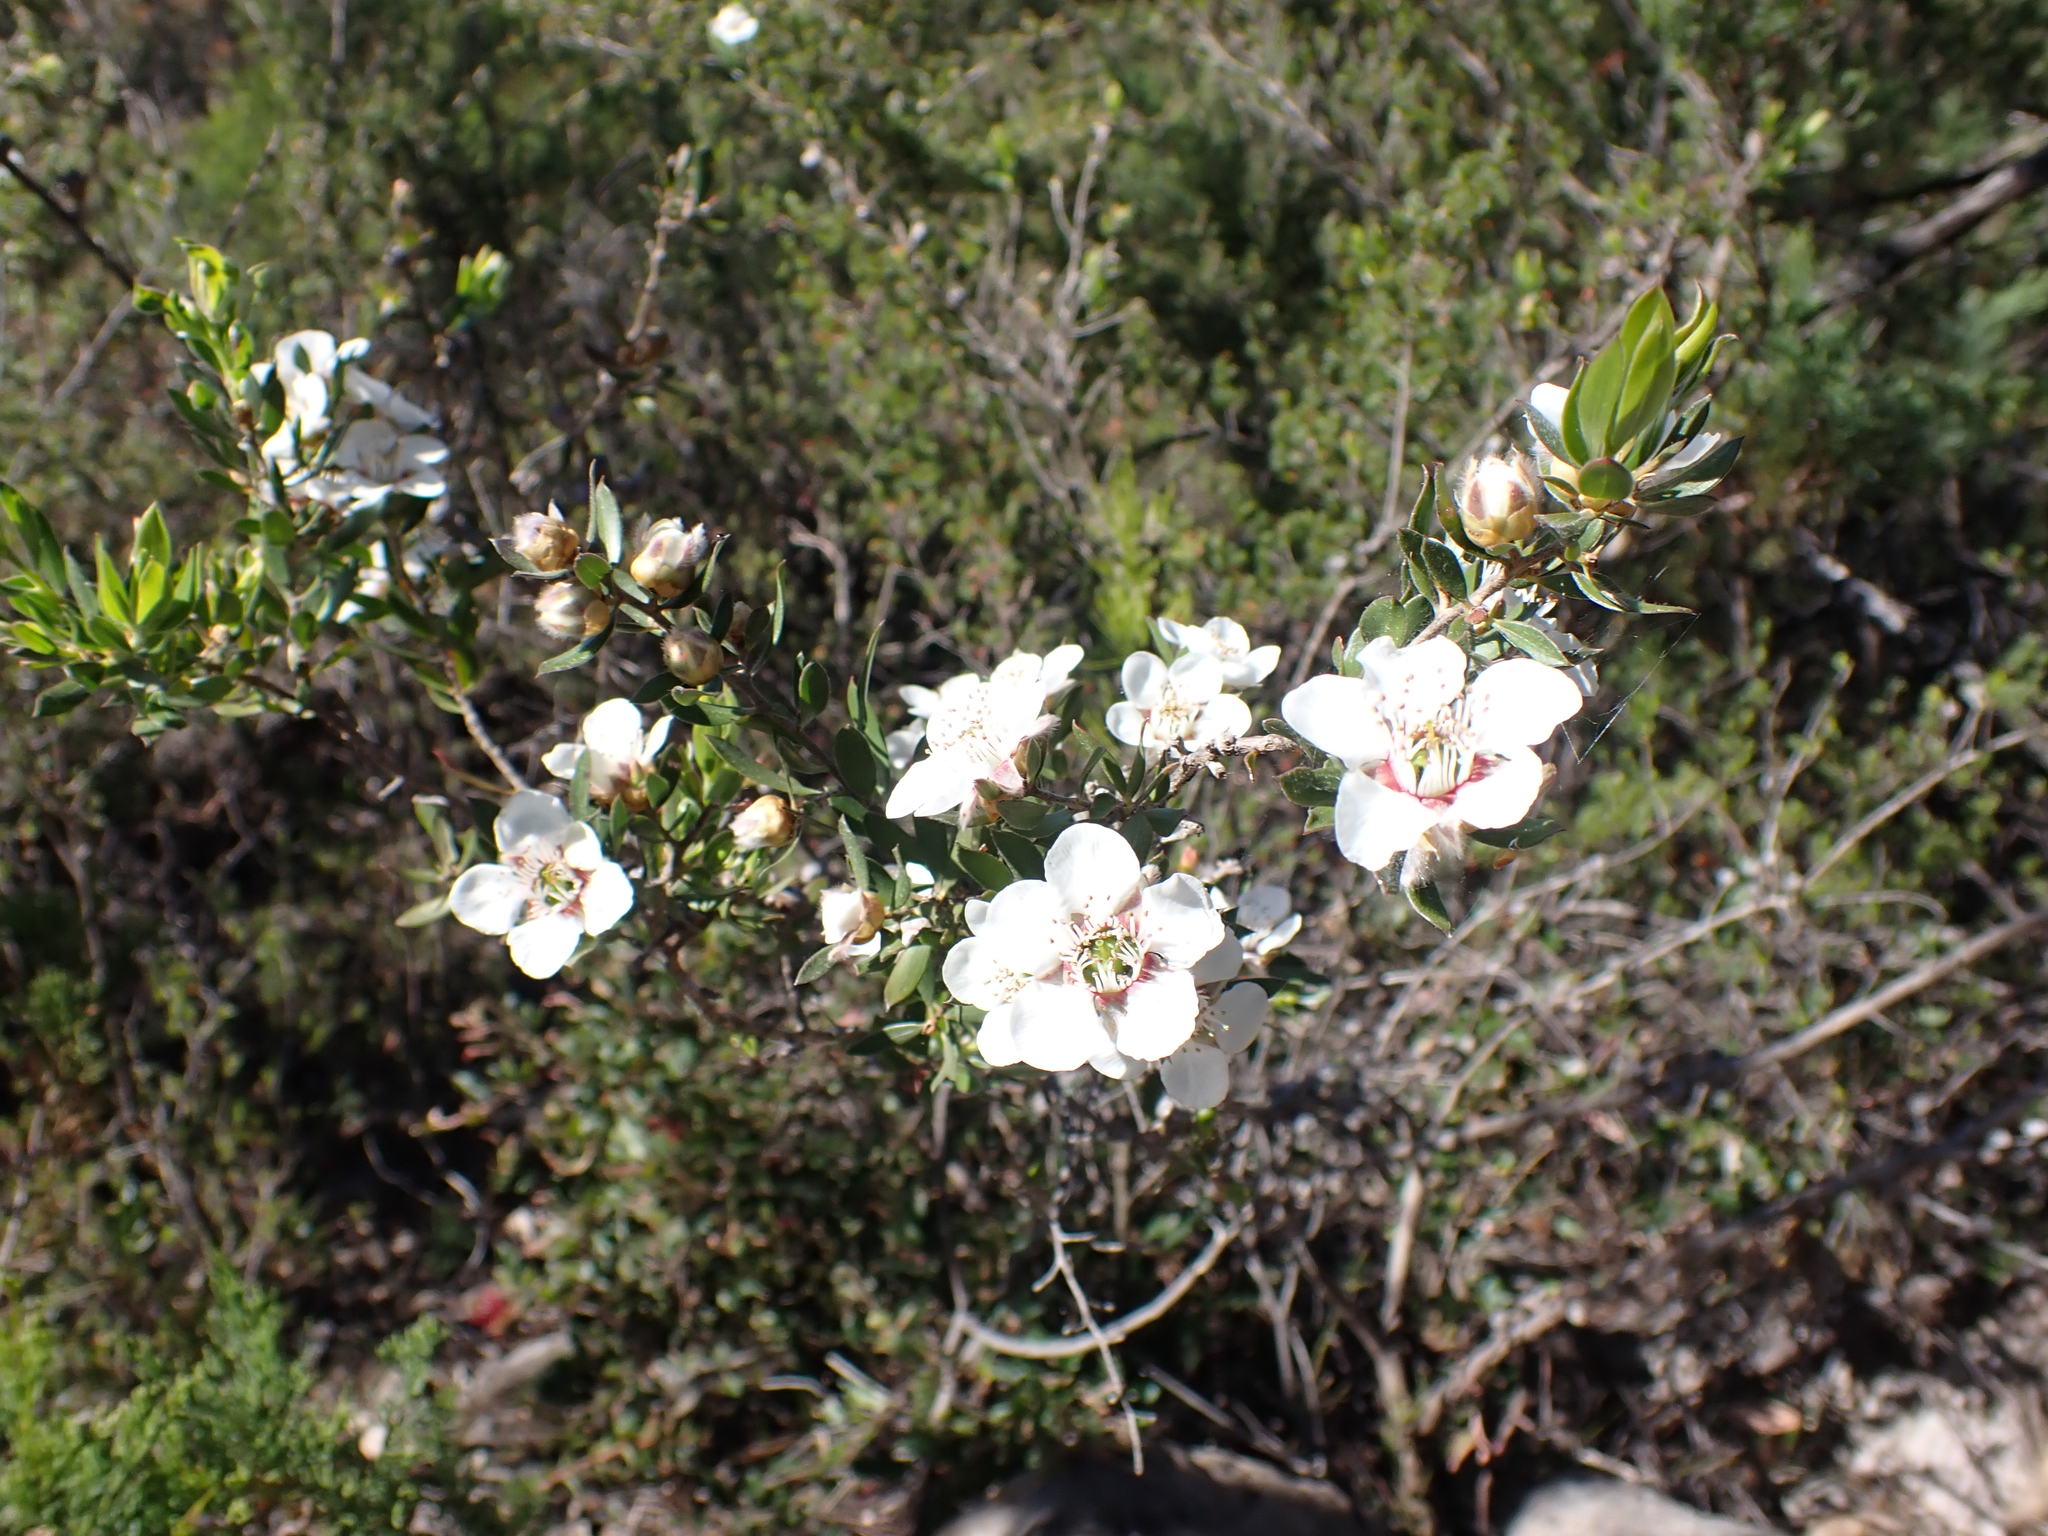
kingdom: Plantae
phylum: Tracheophyta
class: Magnoliopsida
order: Myrtales
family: Myrtaceae
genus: Leptospermum
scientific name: Leptospermum turbinatum
